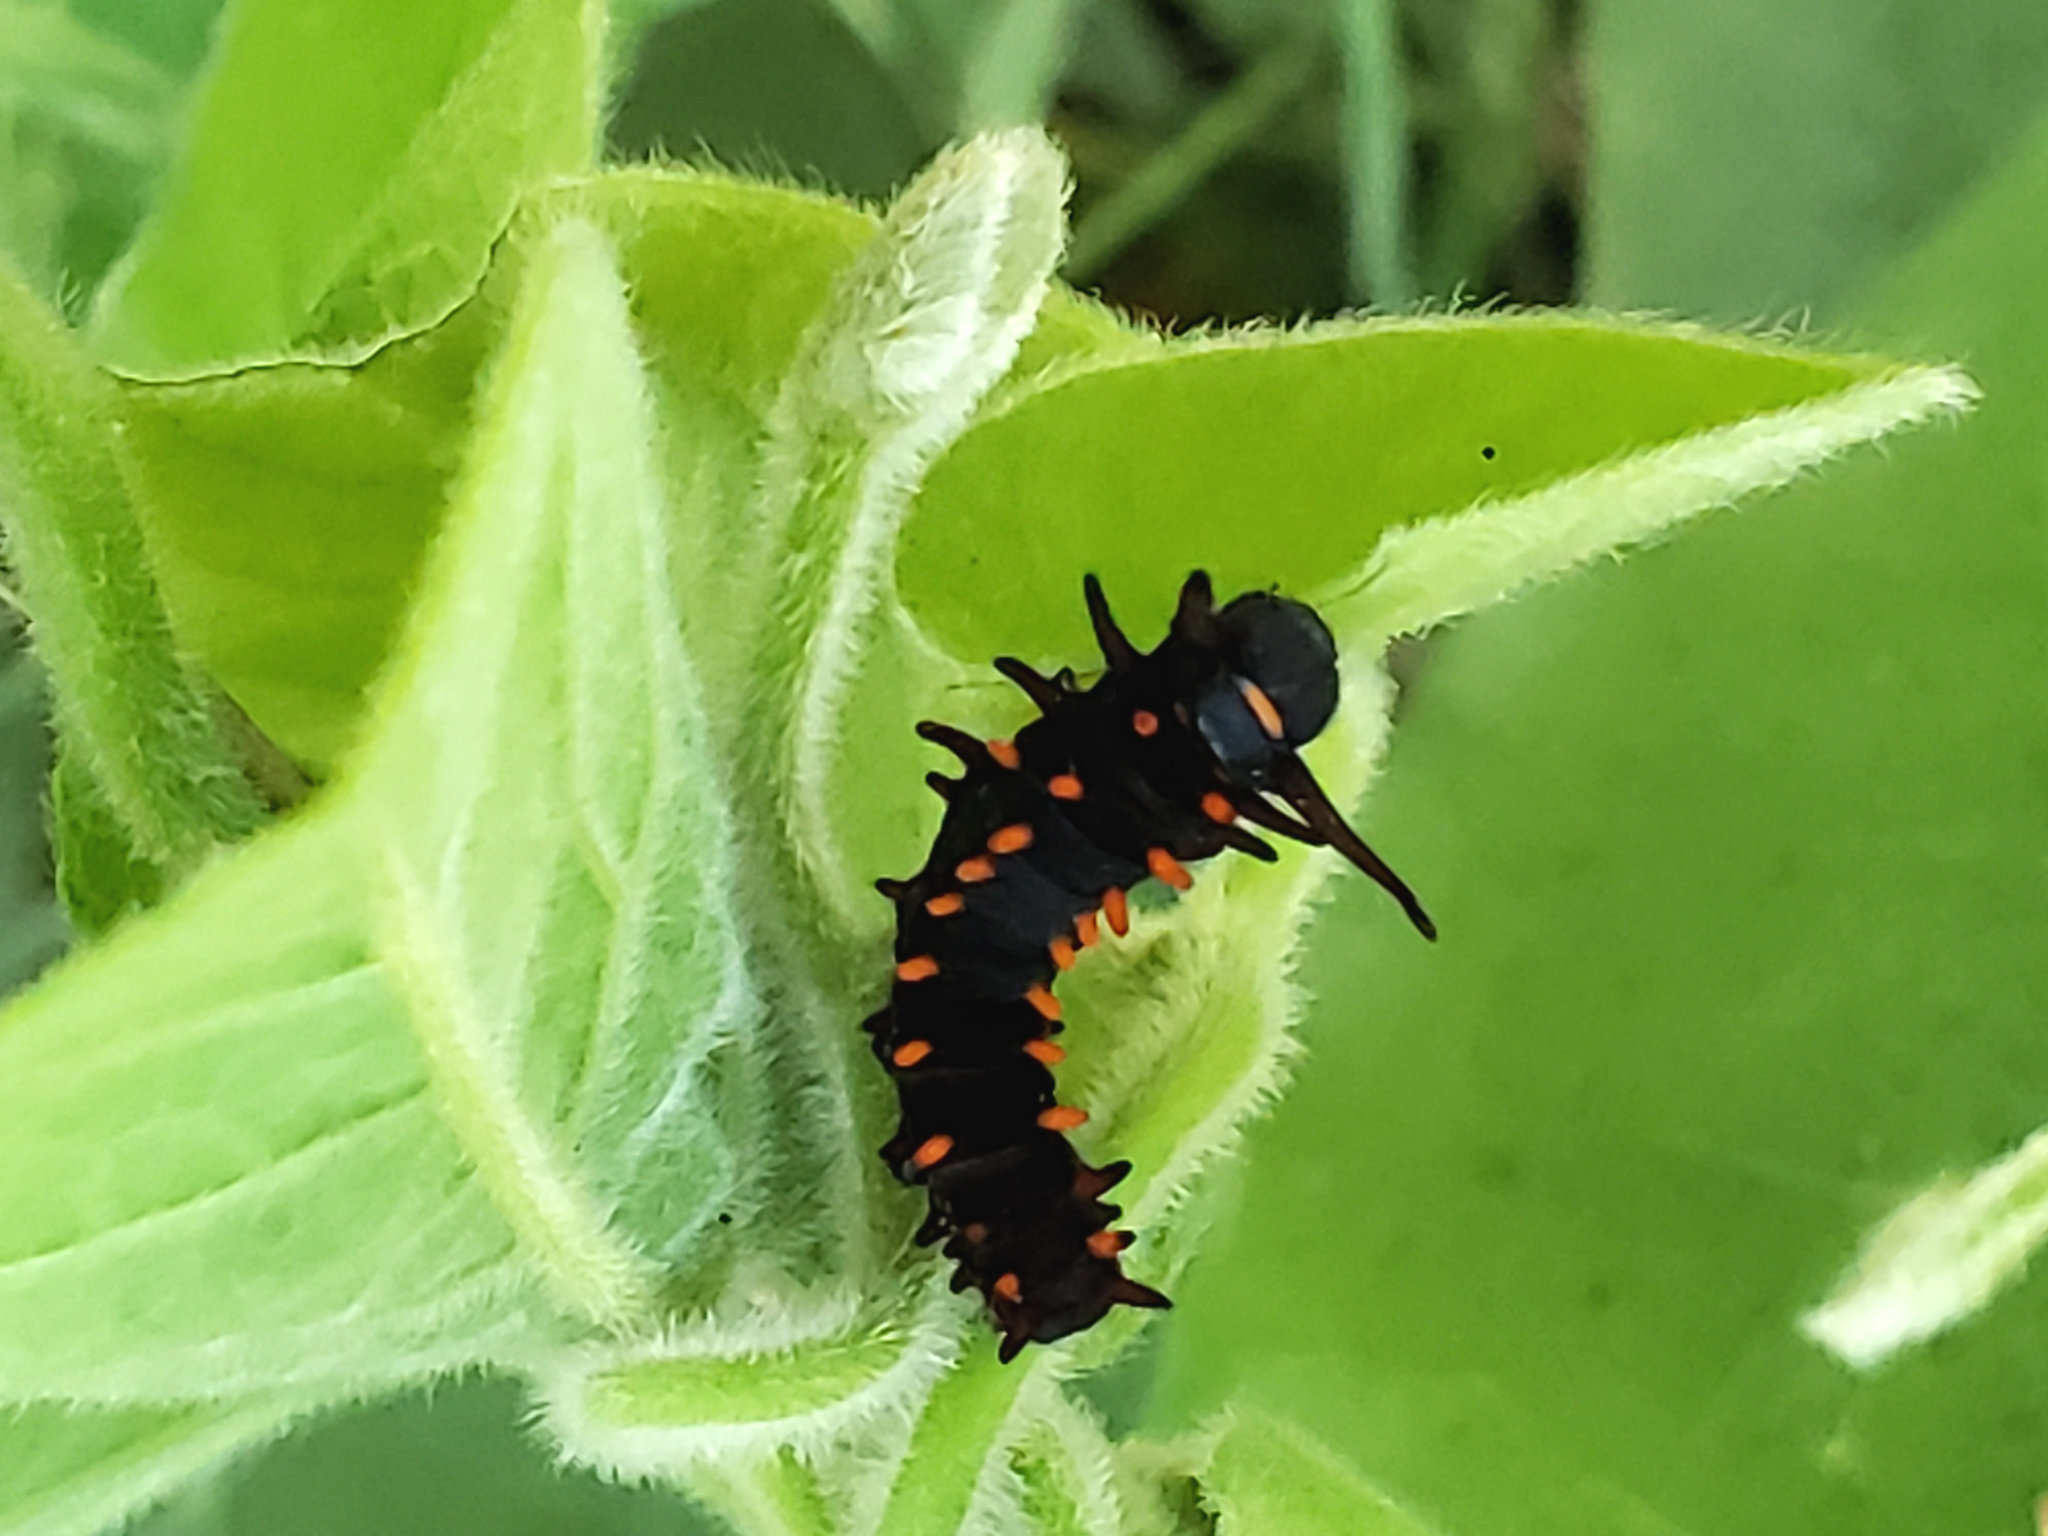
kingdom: Animalia
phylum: Arthropoda
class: Insecta
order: Lepidoptera
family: Papilionidae
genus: Battus
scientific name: Battus philenor
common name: Pipevine swallowtail
